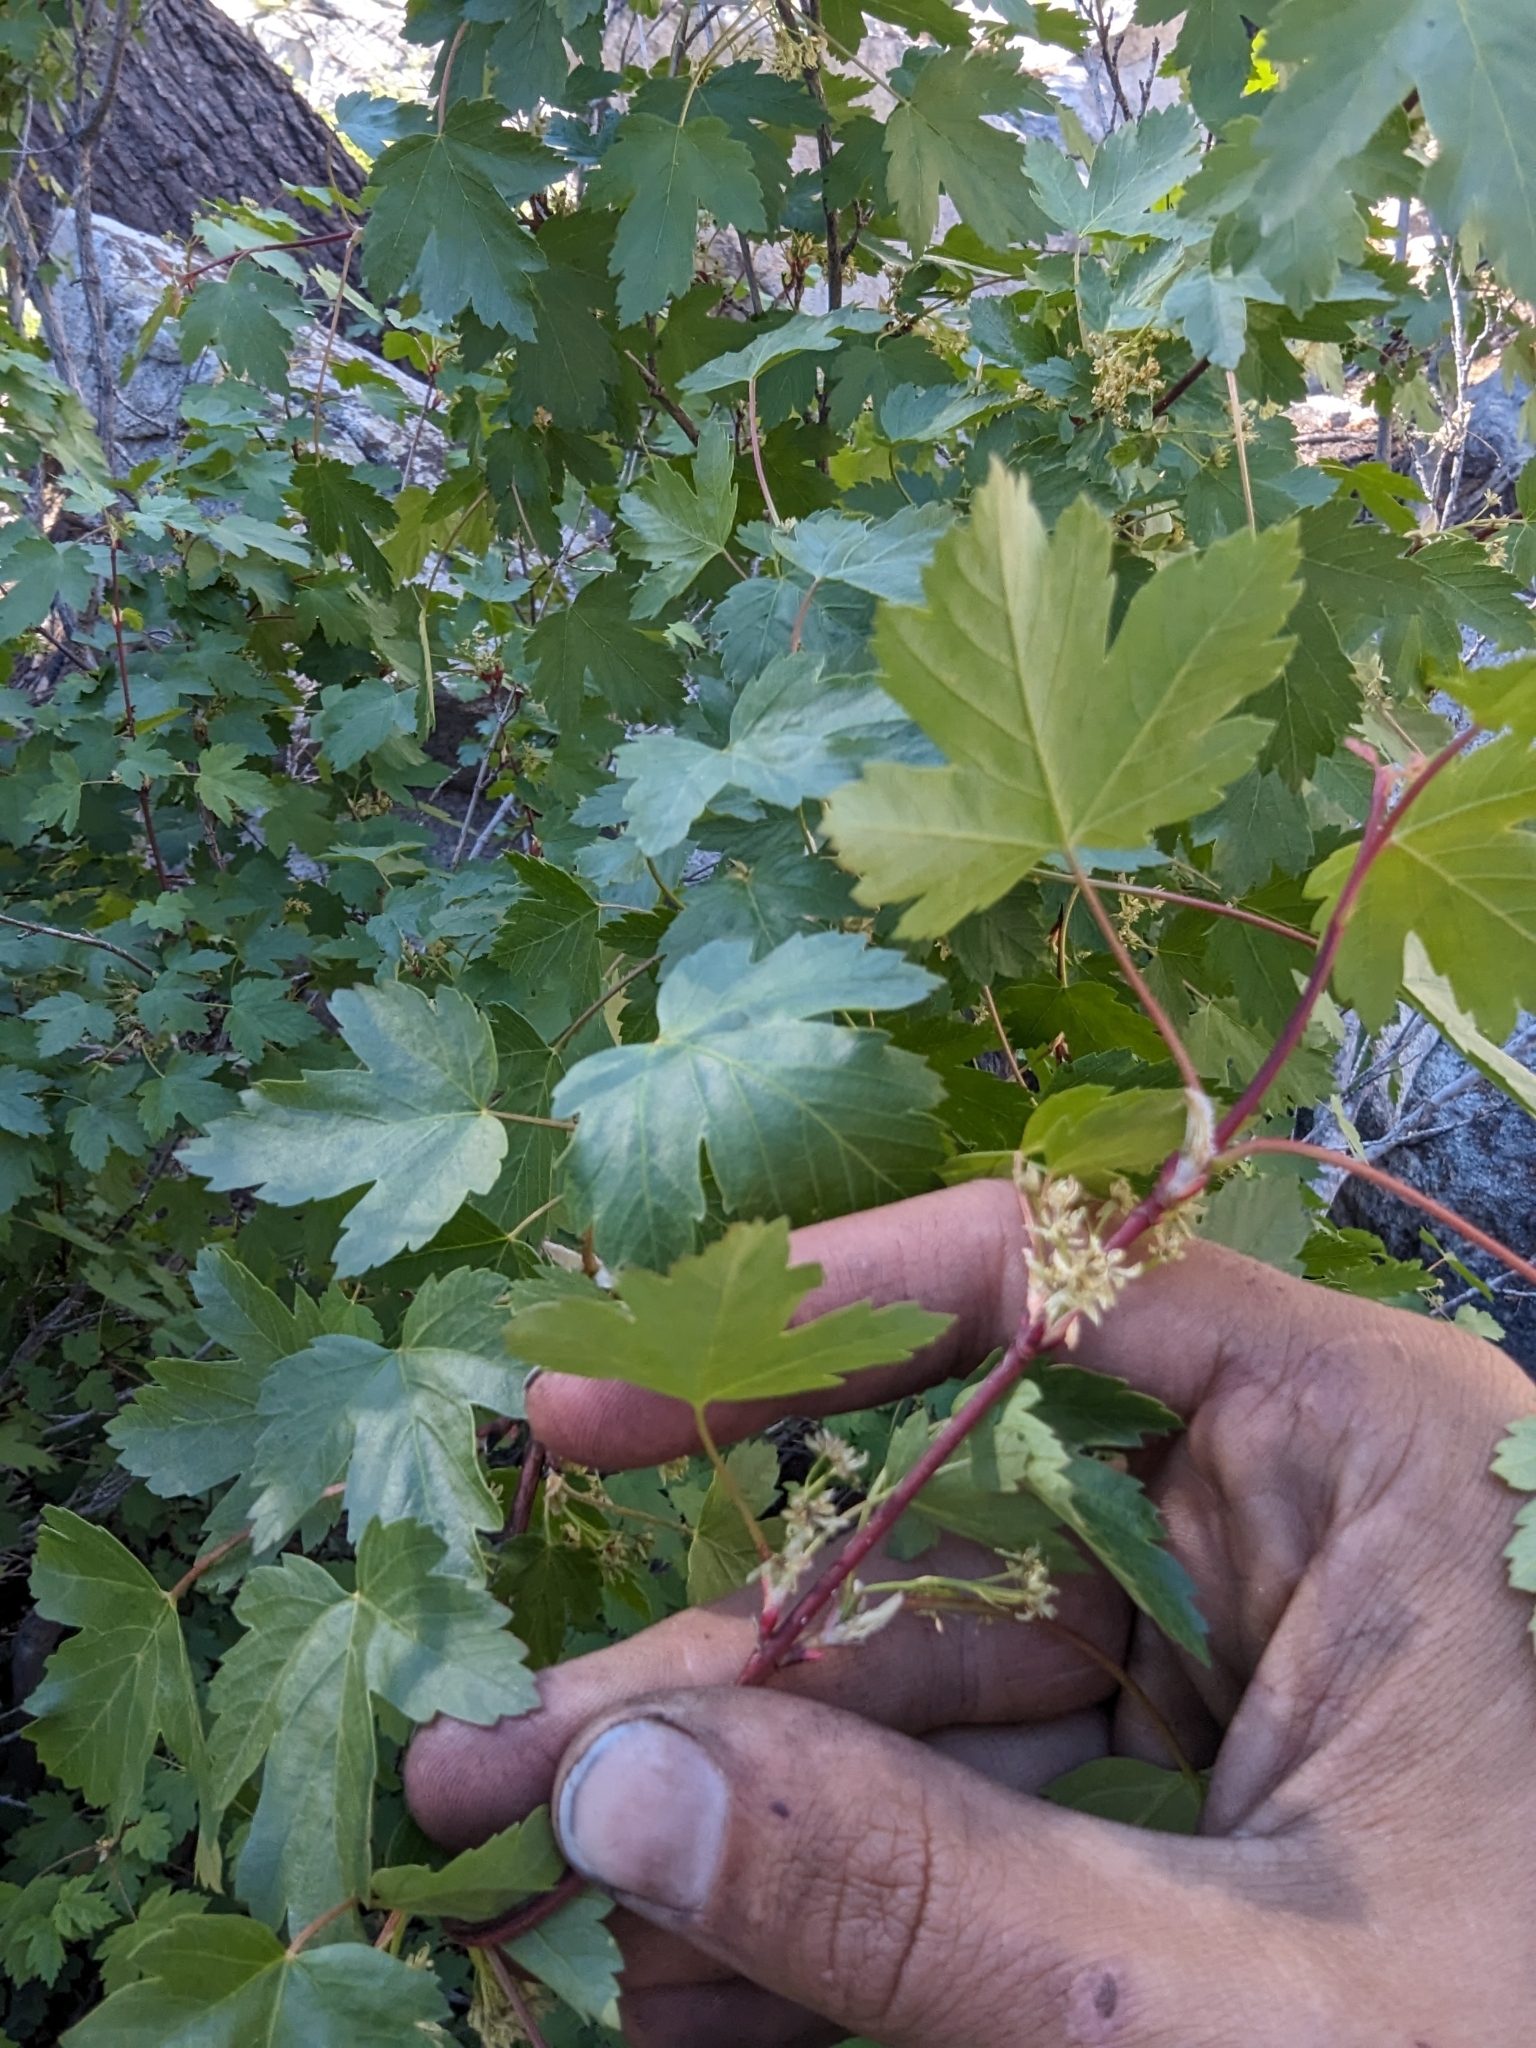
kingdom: Plantae
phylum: Tracheophyta
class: Magnoliopsida
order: Sapindales
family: Sapindaceae
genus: Acer
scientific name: Acer glabrum
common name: Rocky mountain maple
